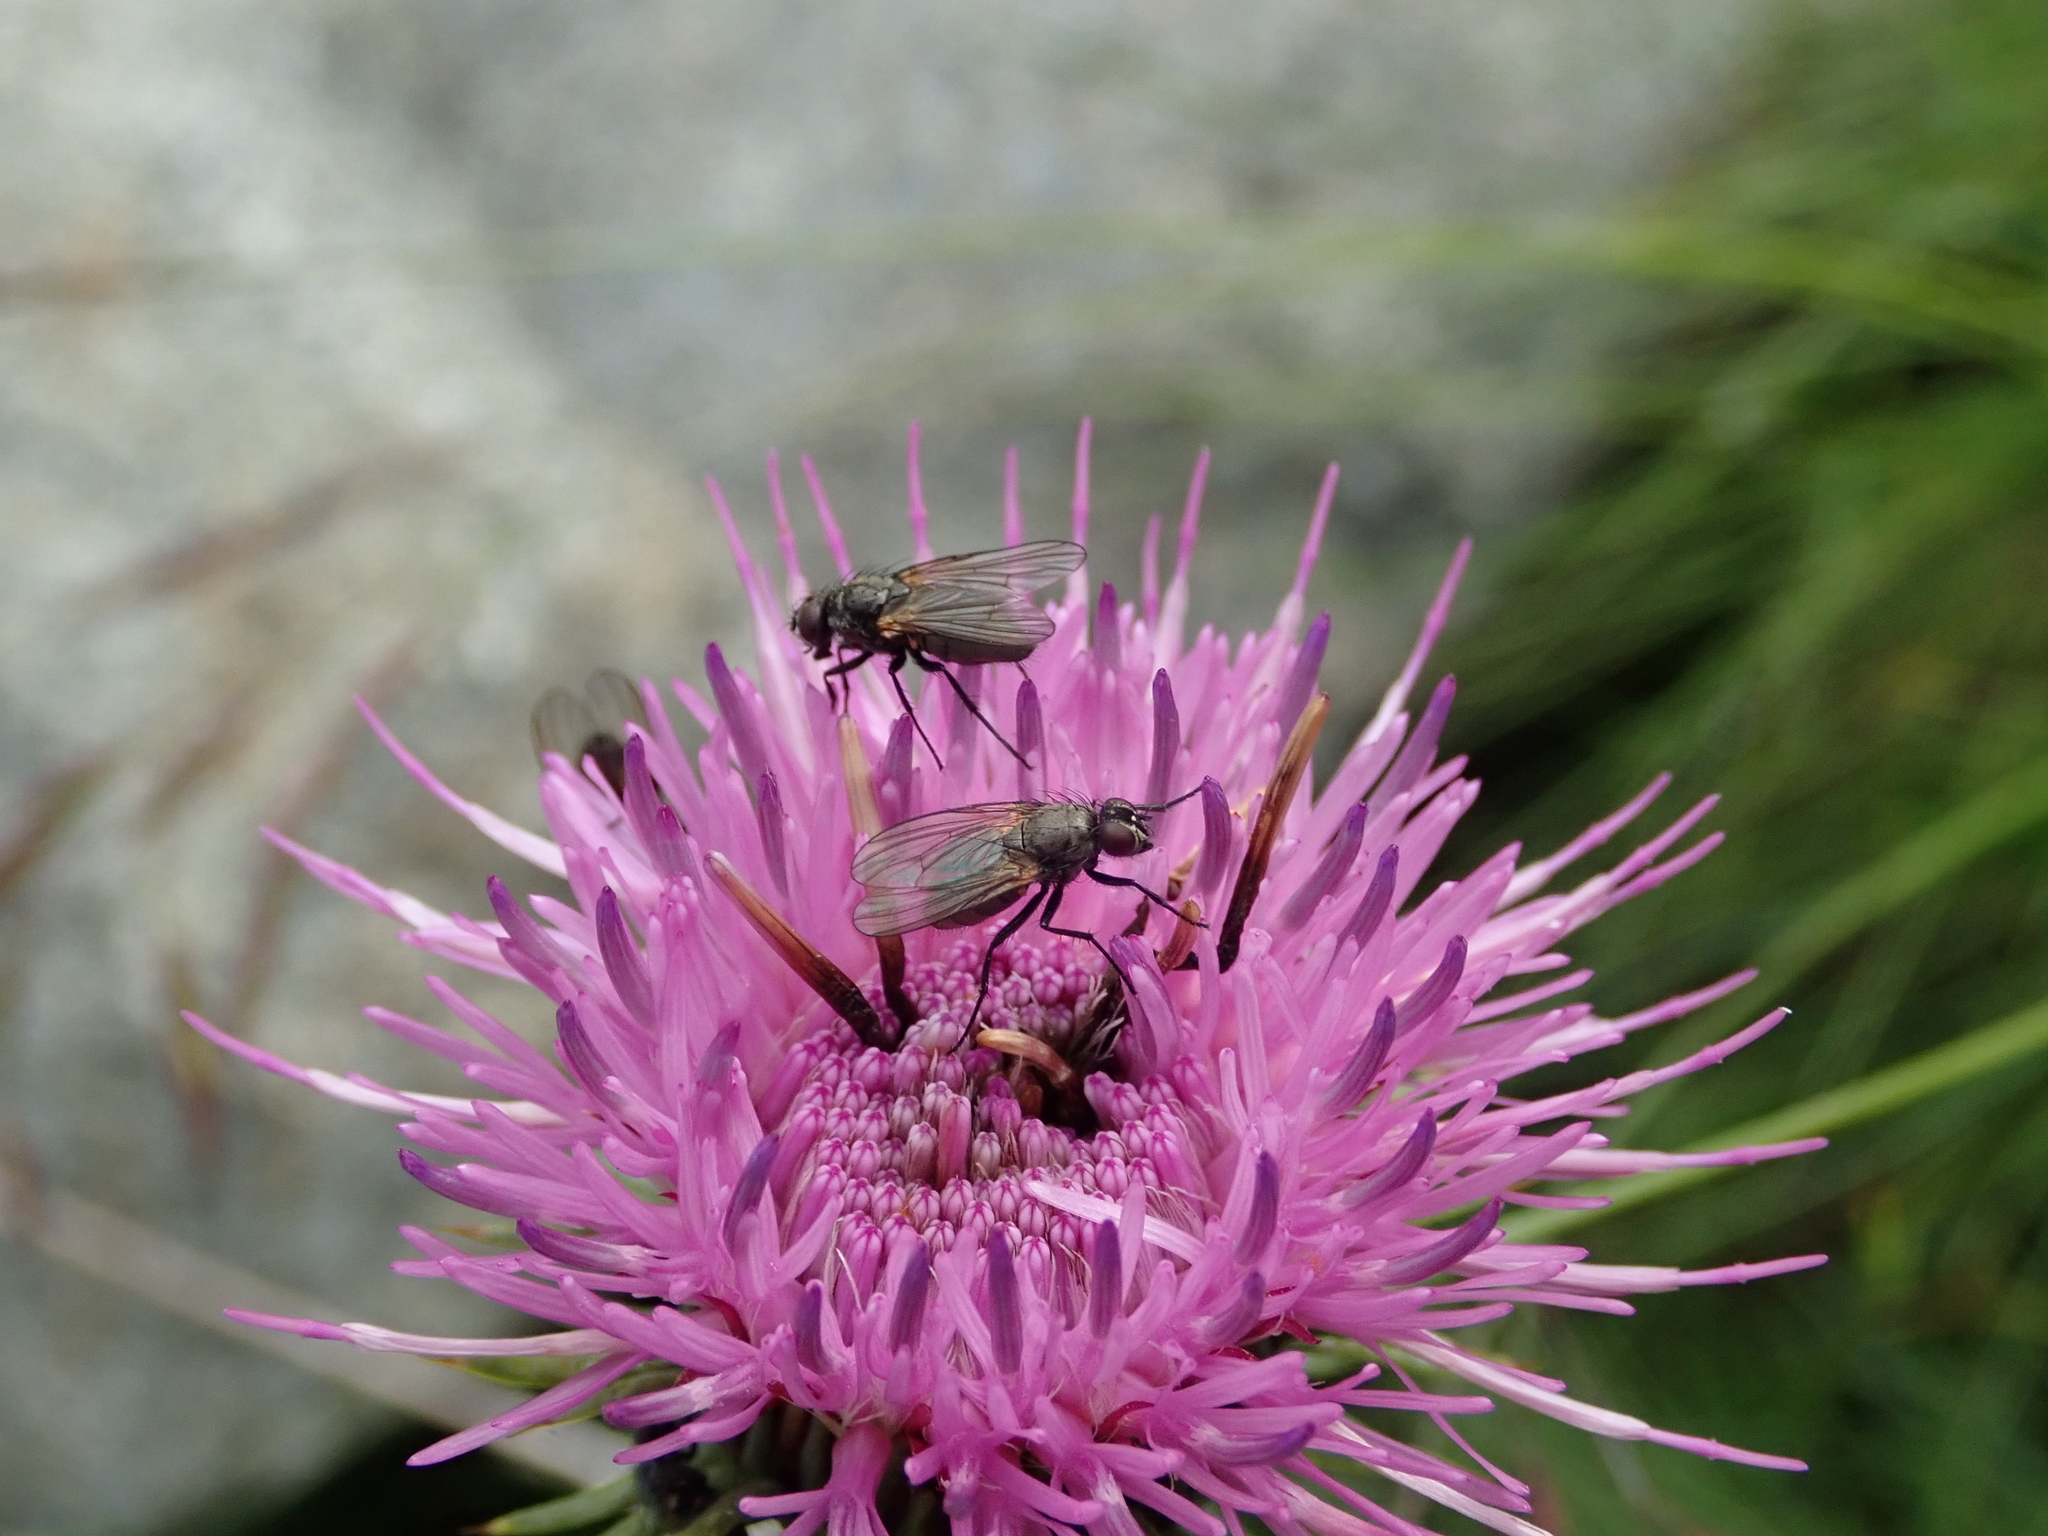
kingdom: Plantae
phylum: Tracheophyta
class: Magnoliopsida
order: Asterales
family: Asteraceae
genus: Carduus
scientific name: Carduus defloratus
